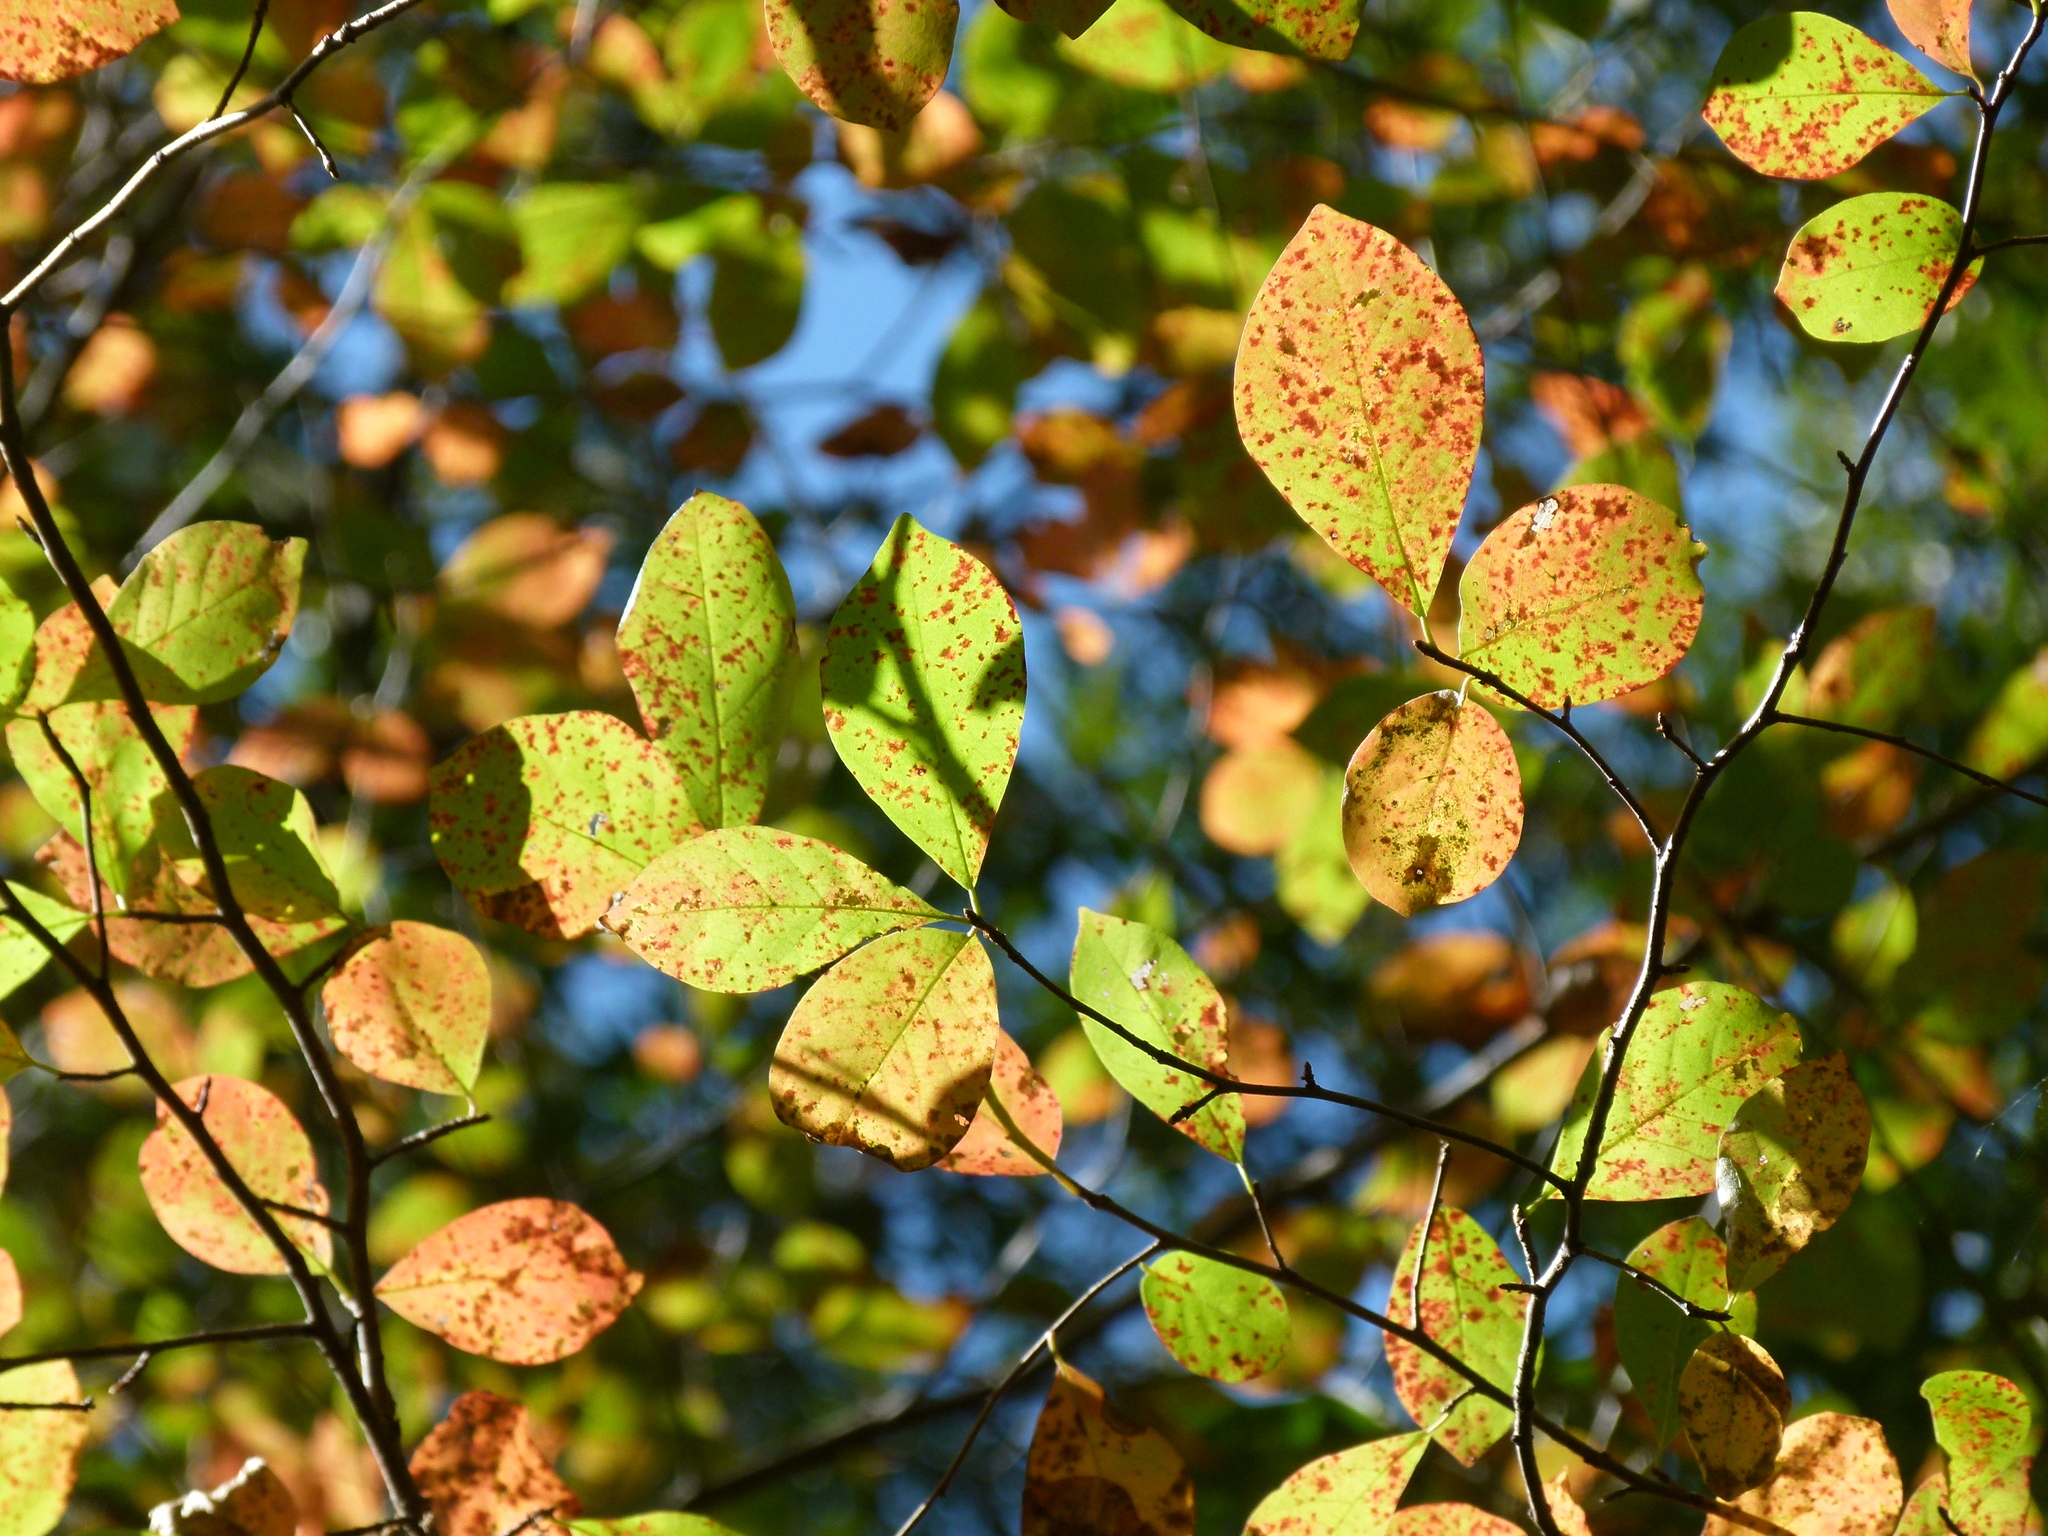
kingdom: Plantae
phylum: Tracheophyta
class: Magnoliopsida
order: Cornales
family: Nyssaceae
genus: Nyssa
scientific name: Nyssa sylvatica
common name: Black tupelo
